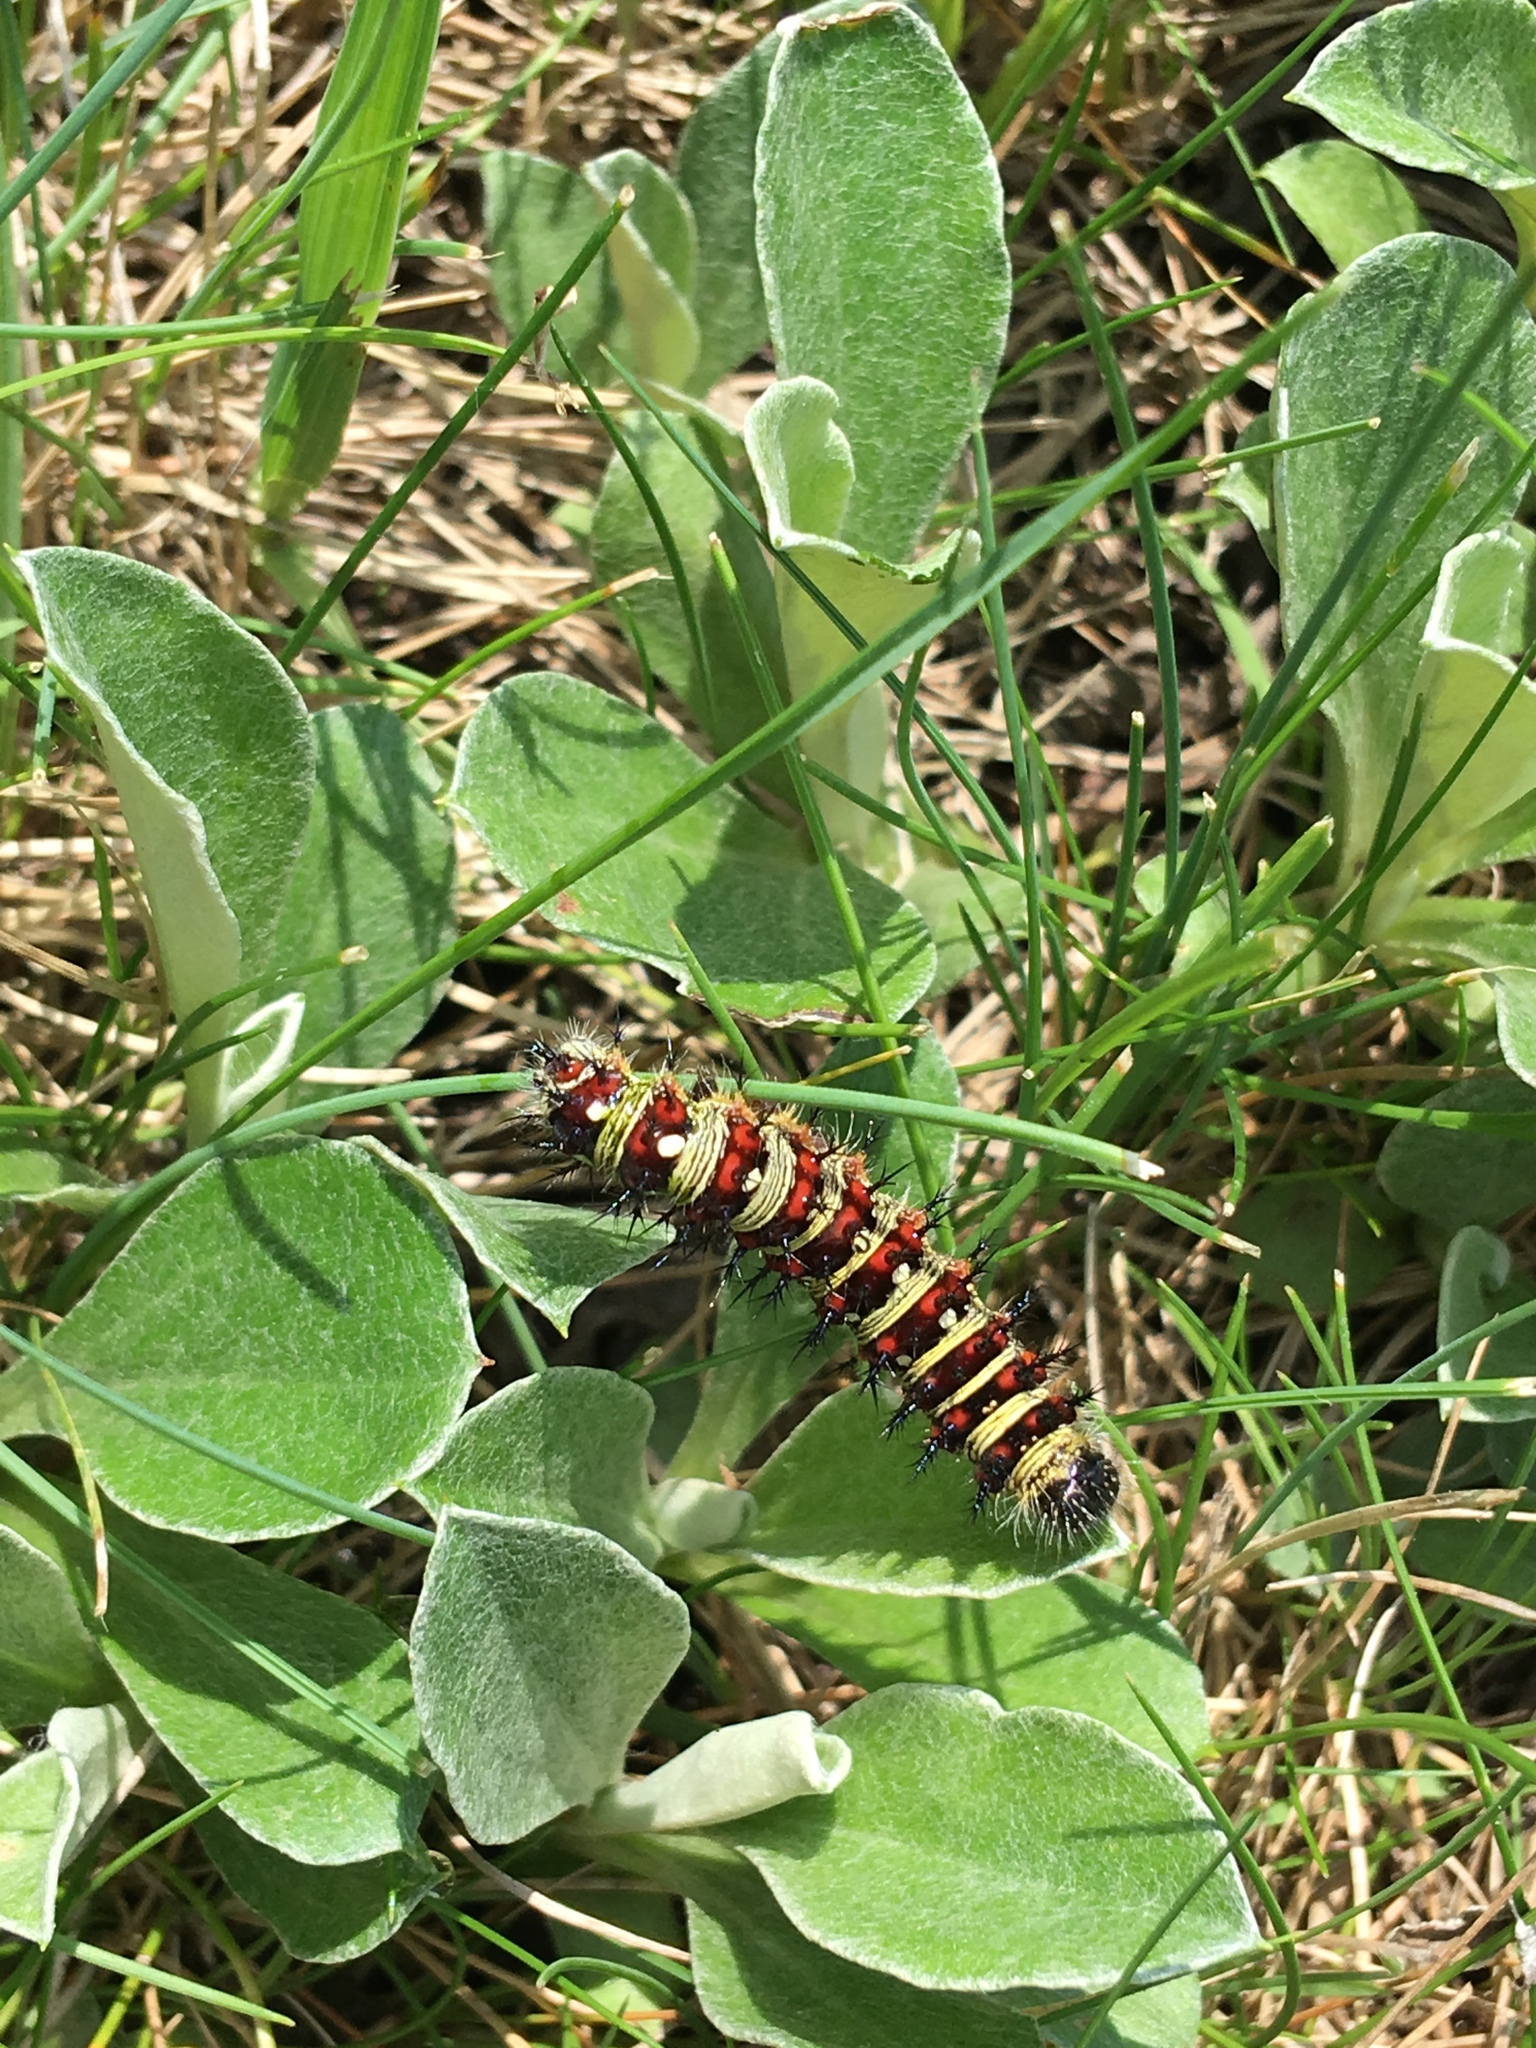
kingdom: Animalia
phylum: Arthropoda
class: Insecta
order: Lepidoptera
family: Nymphalidae
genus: Vanessa
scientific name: Vanessa virginiensis
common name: American lady
